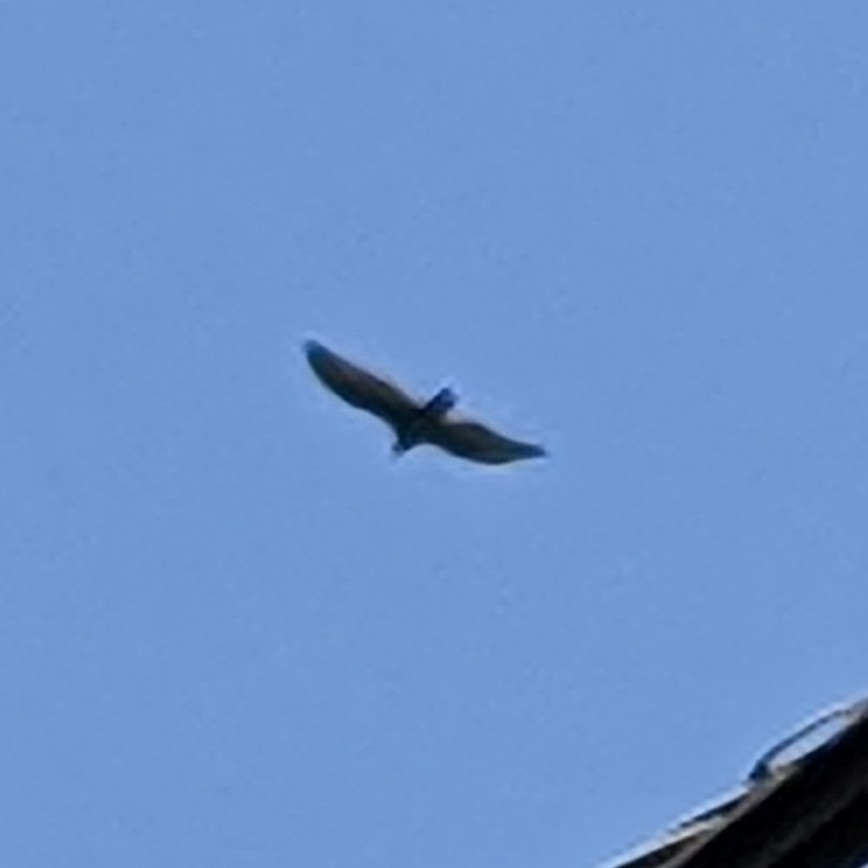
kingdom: Animalia
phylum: Chordata
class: Aves
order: Accipitriformes
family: Cathartidae
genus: Cathartes
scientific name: Cathartes aura
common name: Turkey vulture
